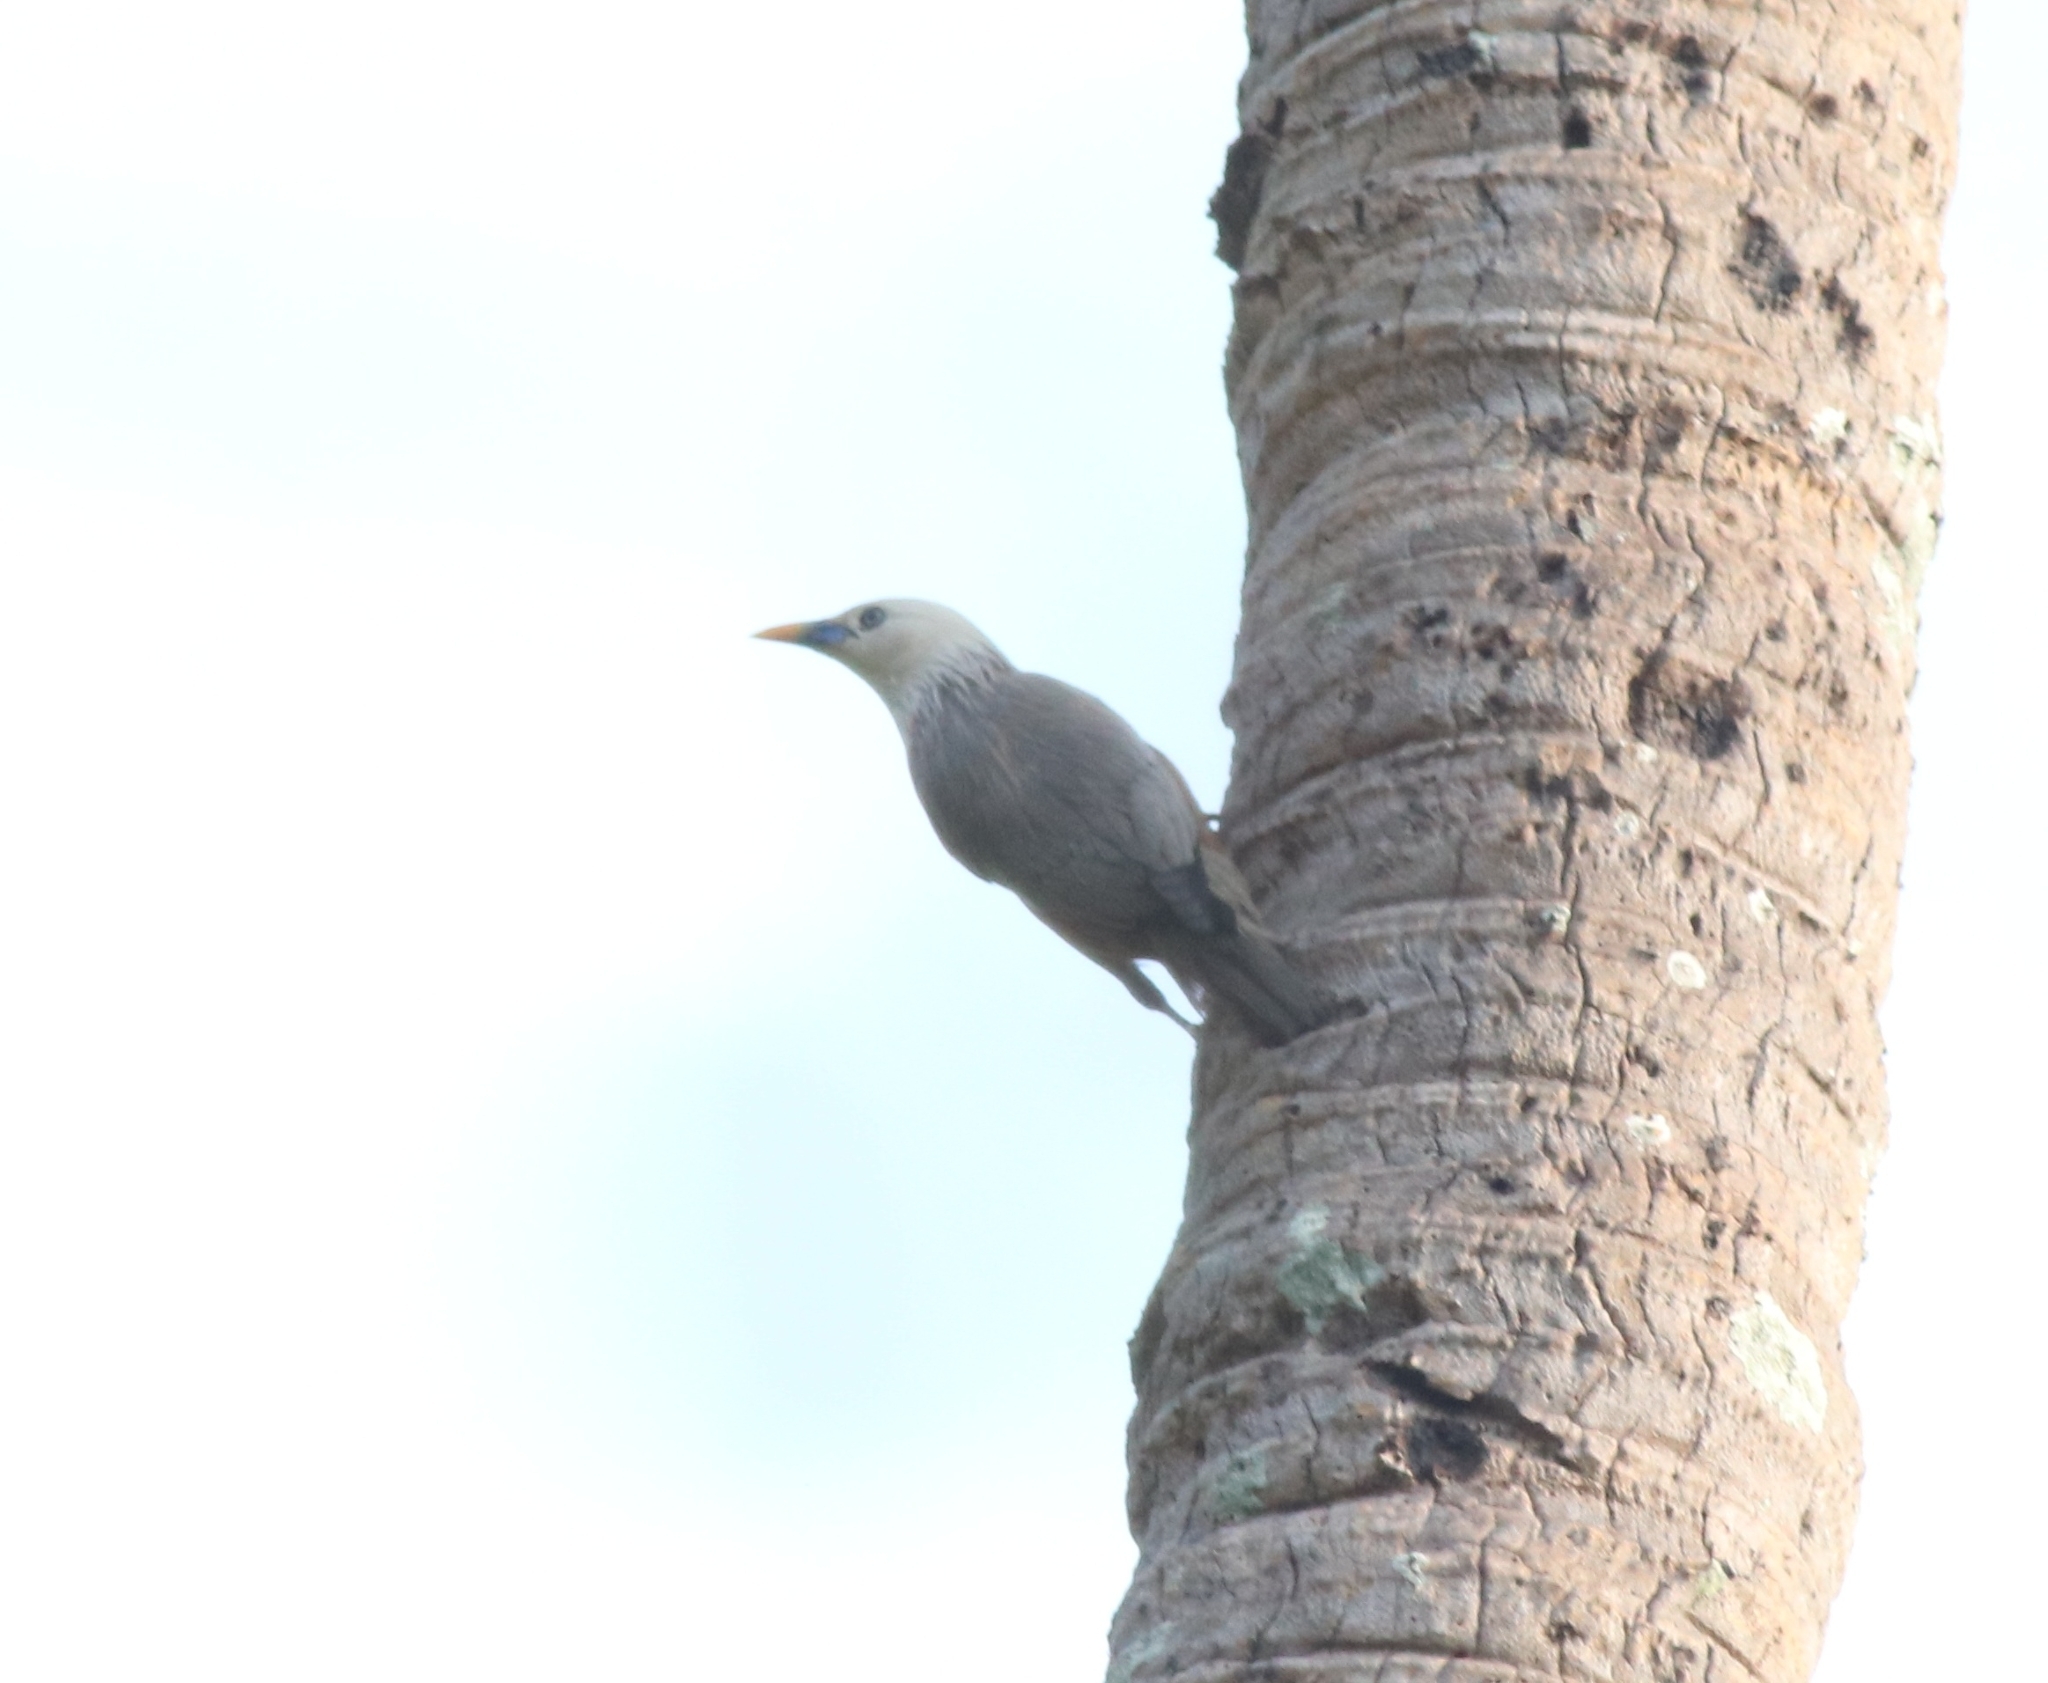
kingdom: Animalia
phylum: Chordata
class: Aves
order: Passeriformes
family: Sturnidae
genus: Sturnia
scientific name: Sturnia blythii
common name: Malabar starling
